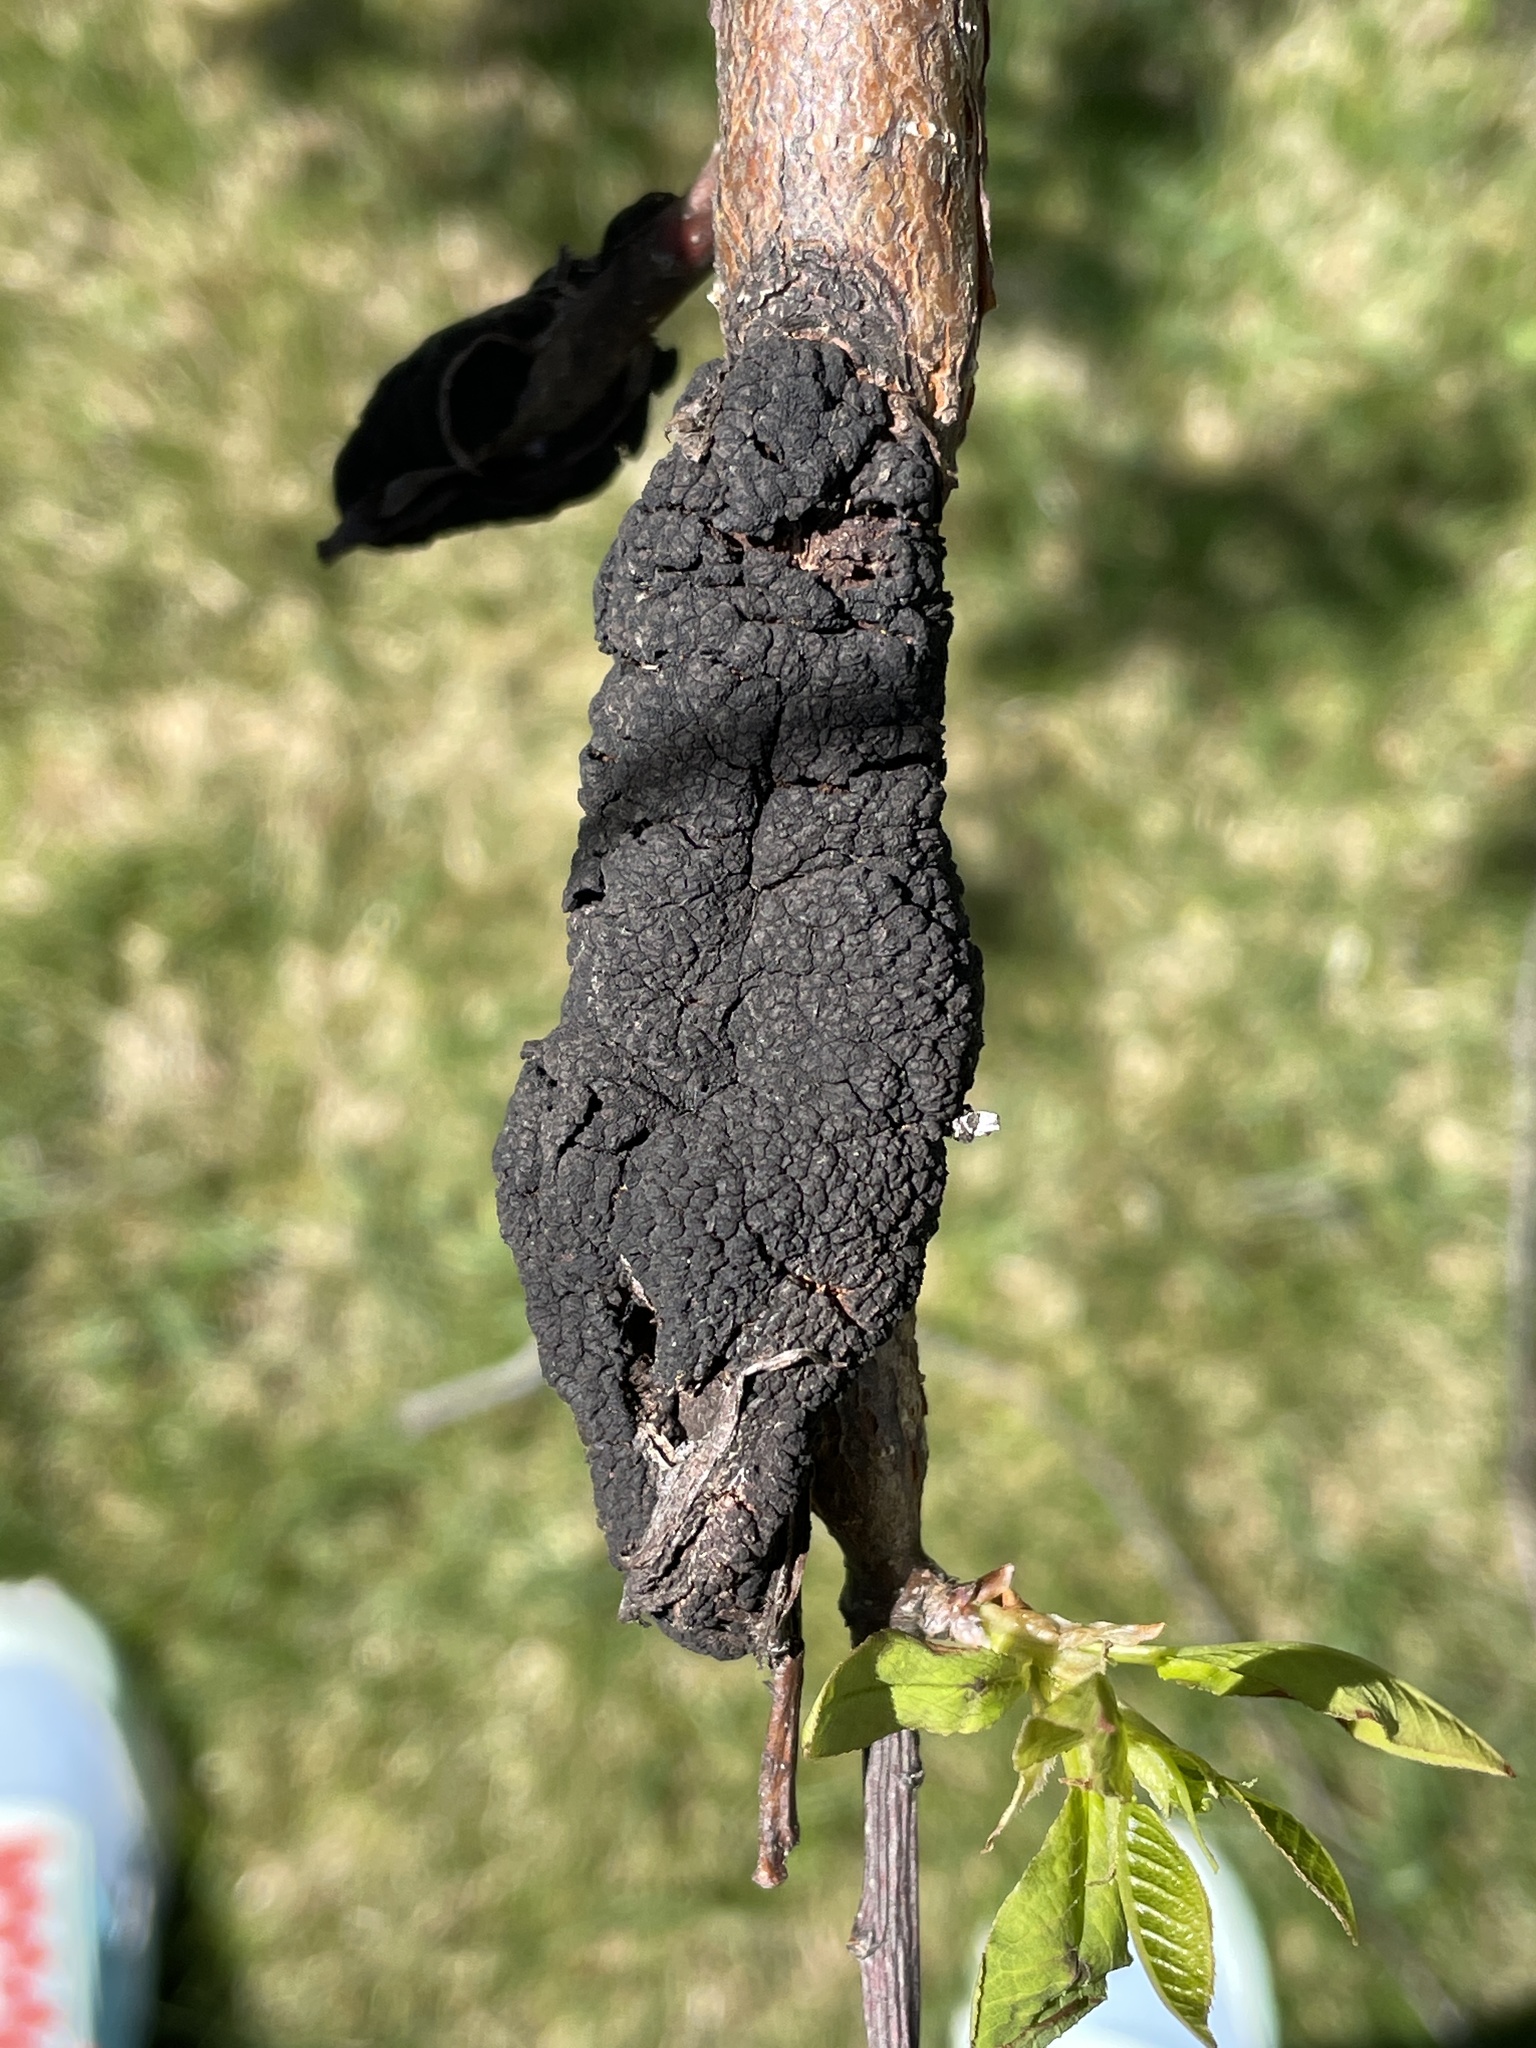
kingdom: Fungi
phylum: Ascomycota
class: Dothideomycetes
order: Venturiales
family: Venturiaceae
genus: Apiosporina
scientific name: Apiosporina morbosa
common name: Black knot
